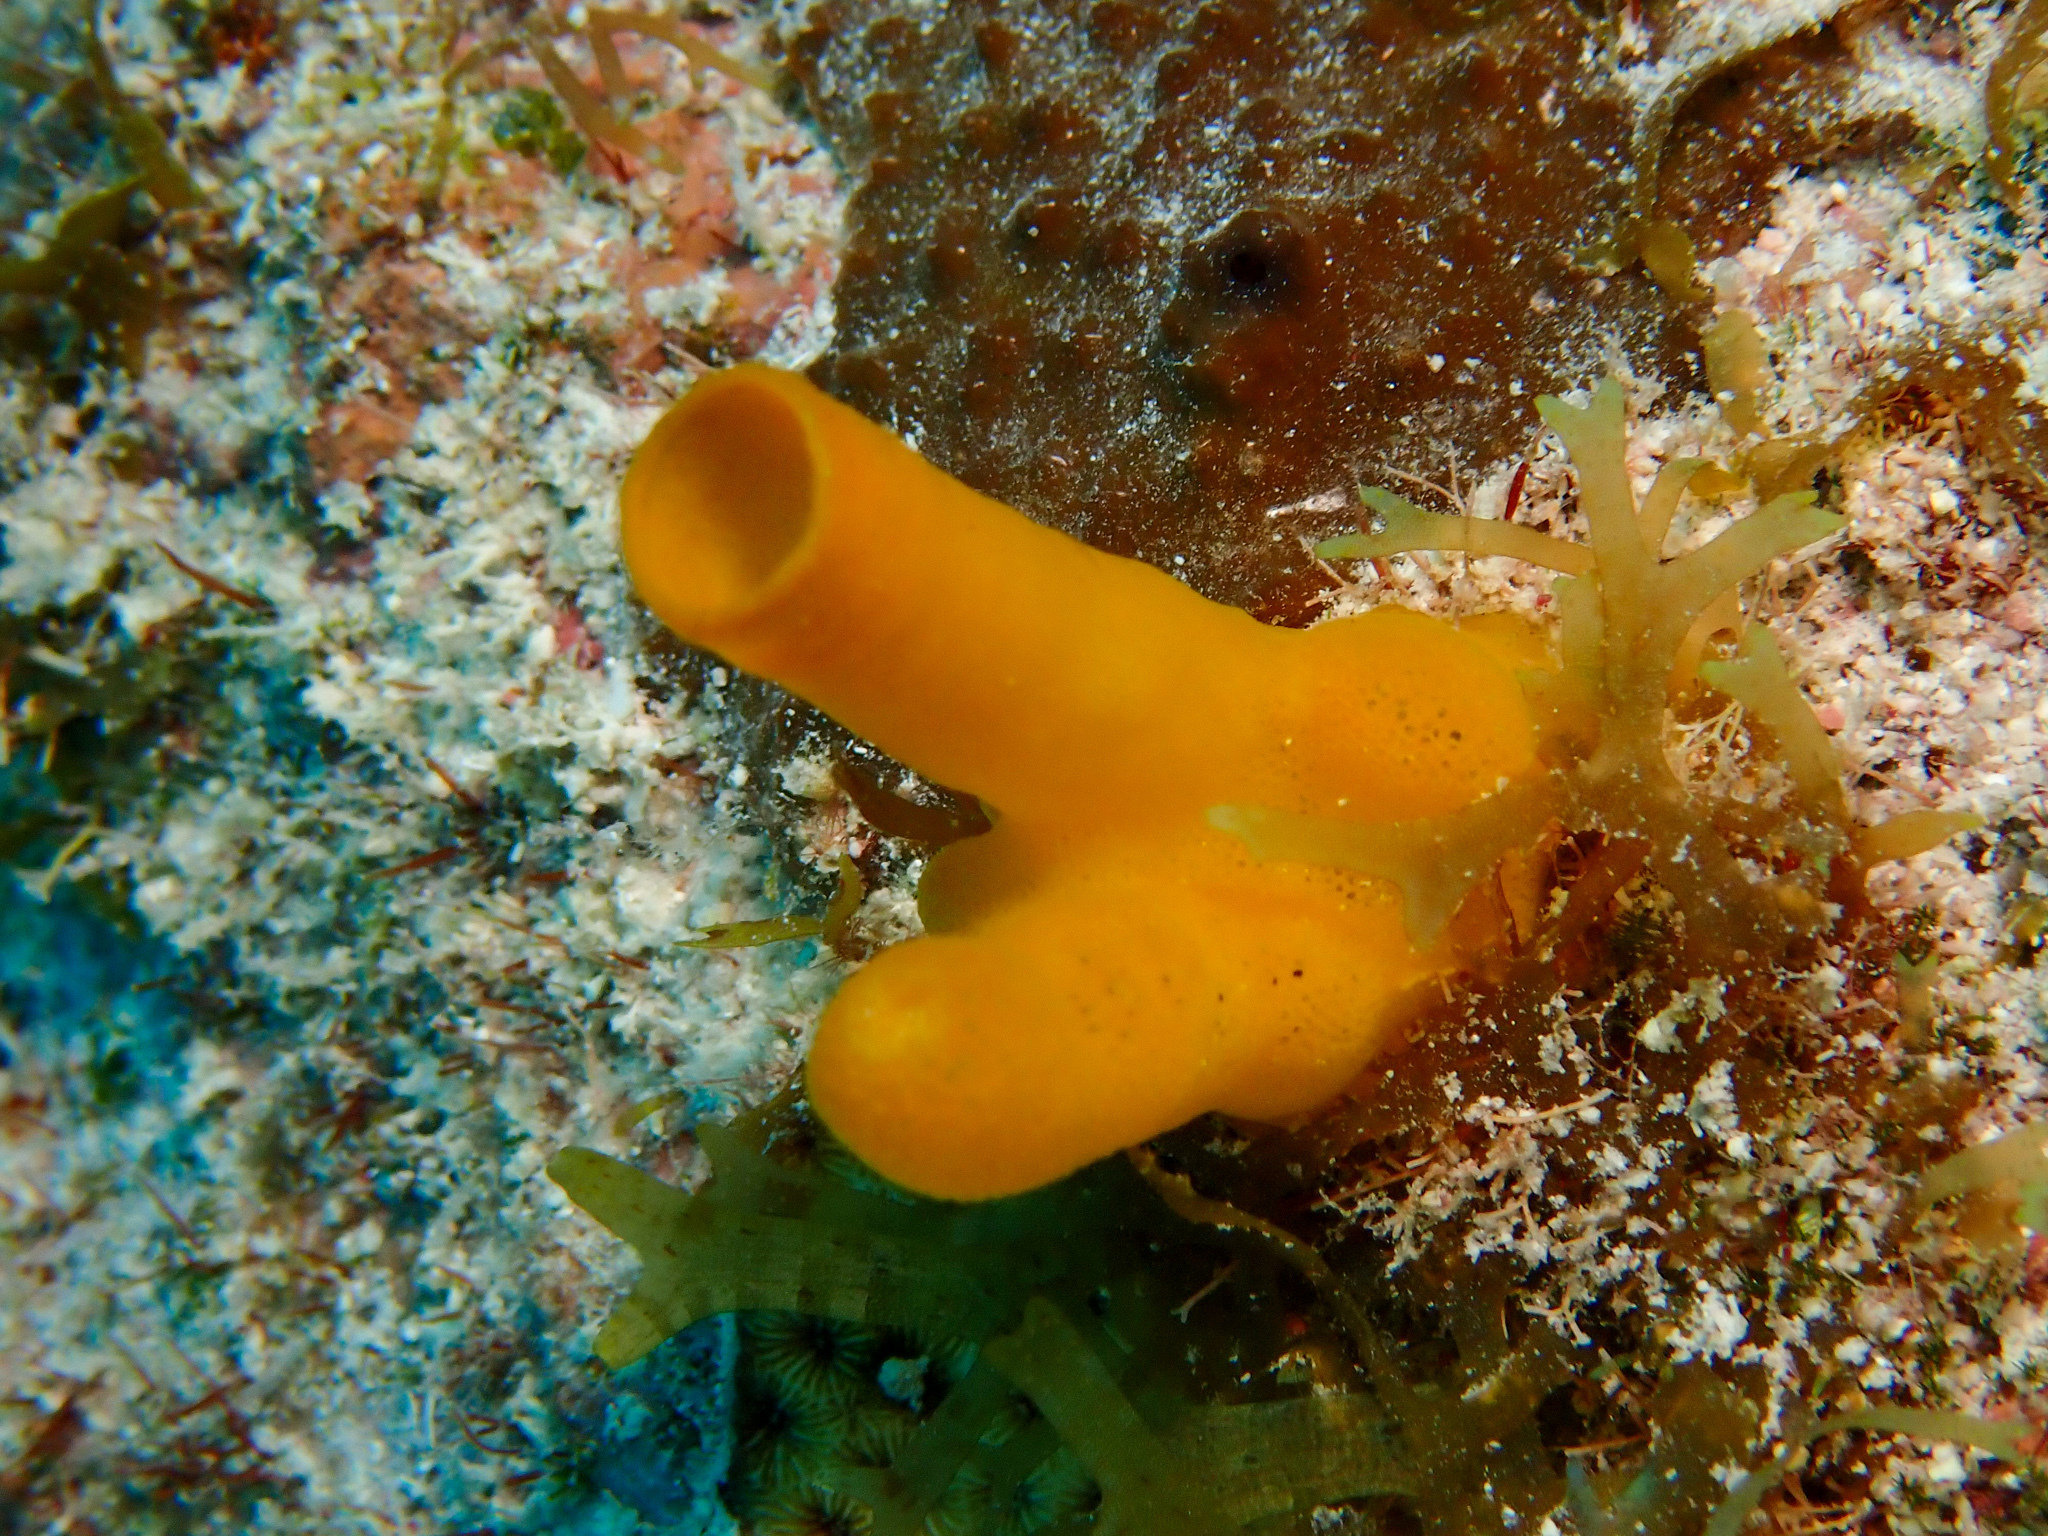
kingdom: Animalia
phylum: Porifera
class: Demospongiae
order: Haplosclerida
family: Phloeodictyidae
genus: Siphonodictyon
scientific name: Siphonodictyon coralliphagum
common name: Coral-eating boring sponge
